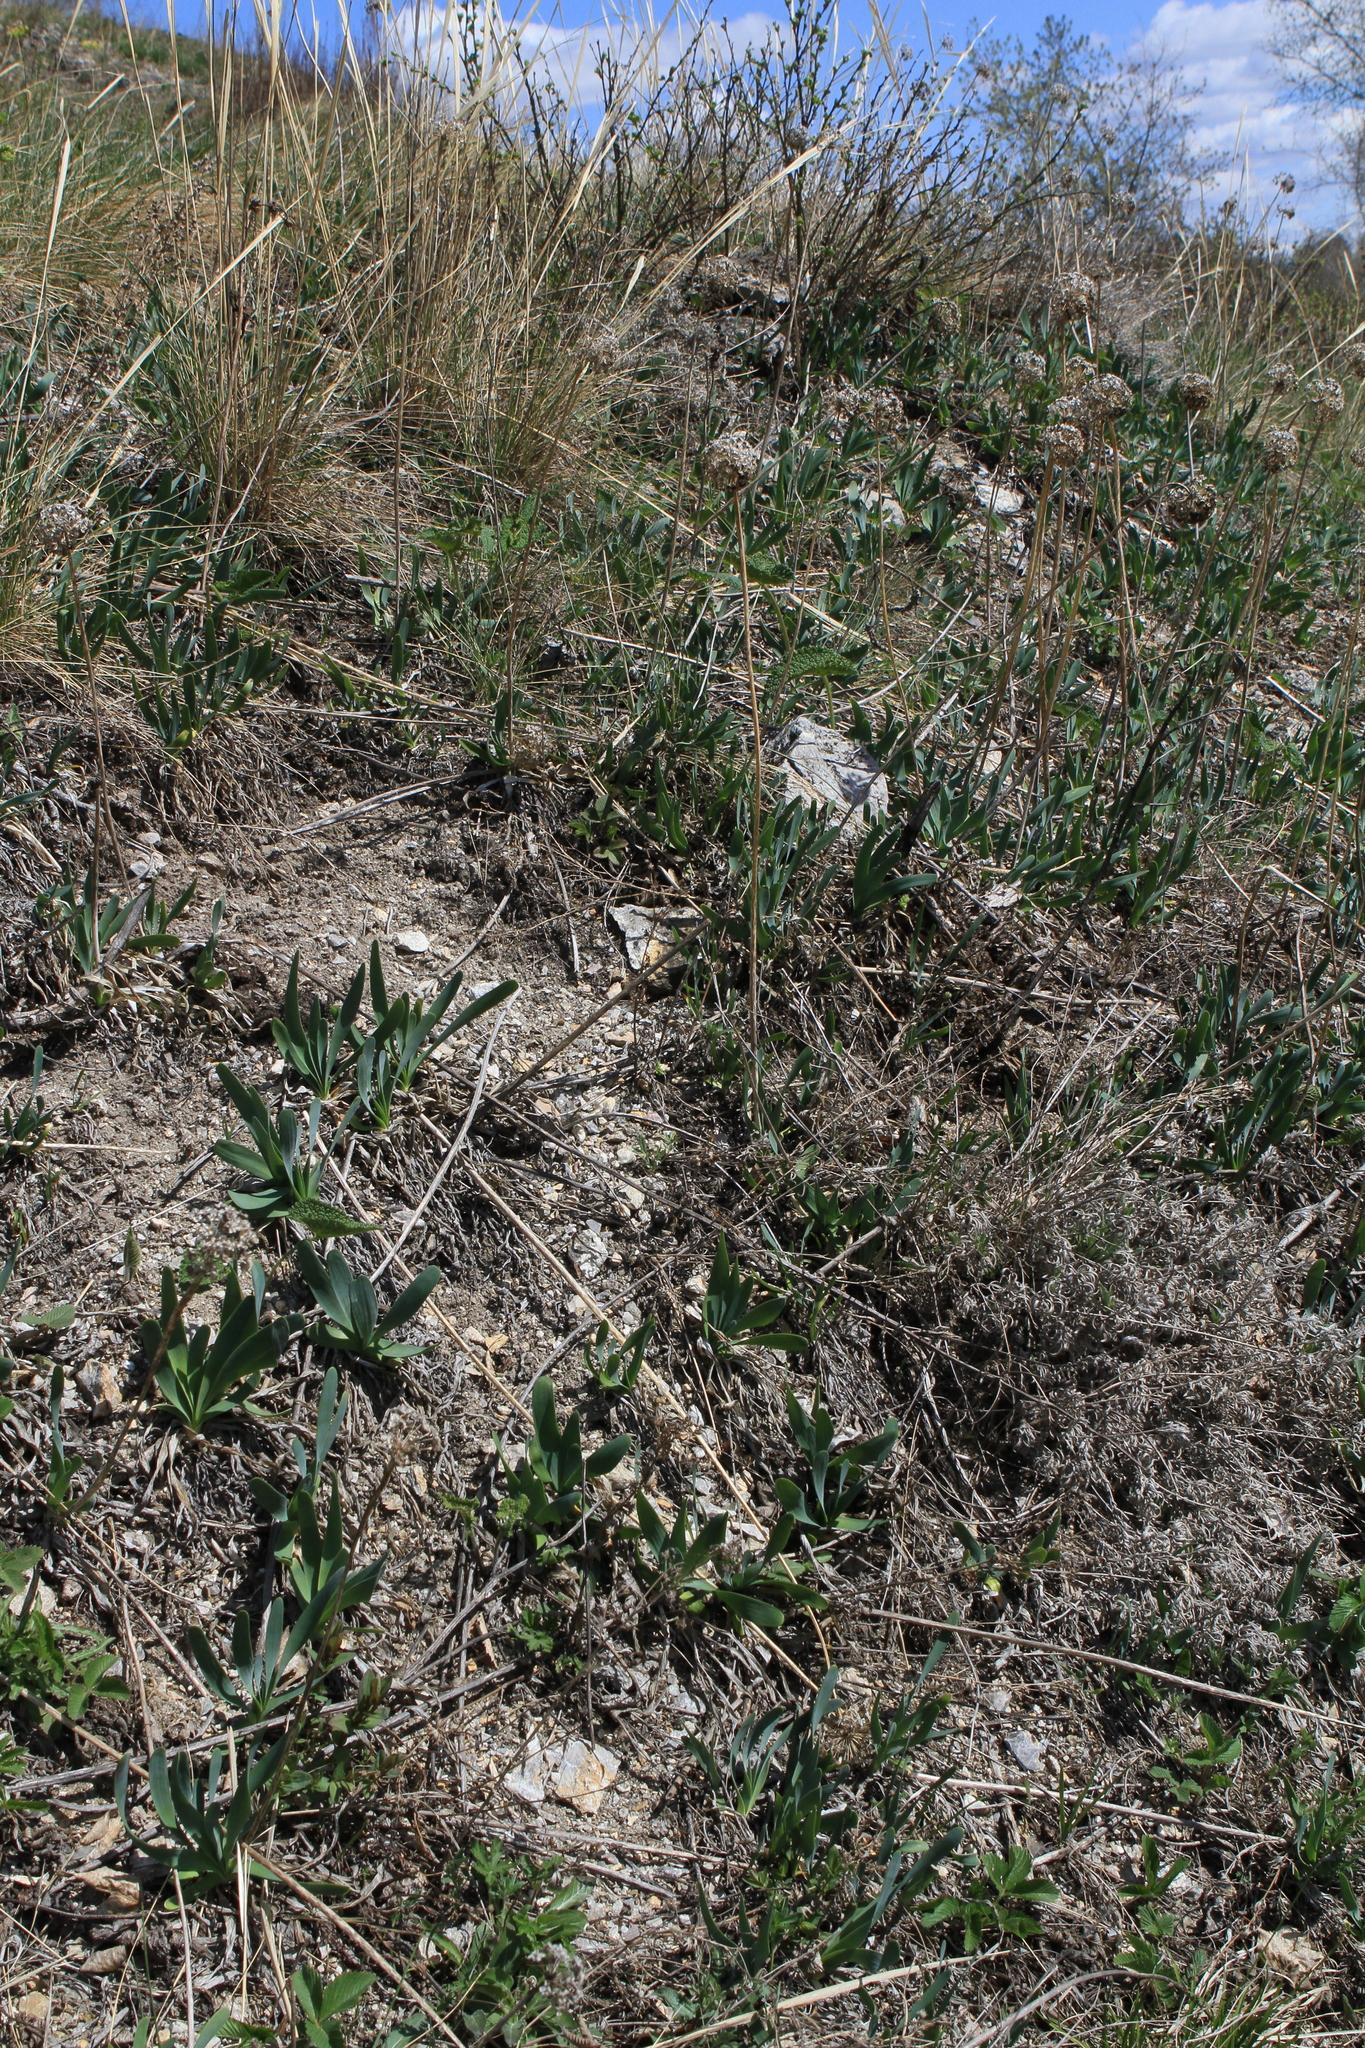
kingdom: Plantae
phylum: Tracheophyta
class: Liliopsida
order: Asparagales
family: Amaryllidaceae
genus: Allium
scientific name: Allium nutans
